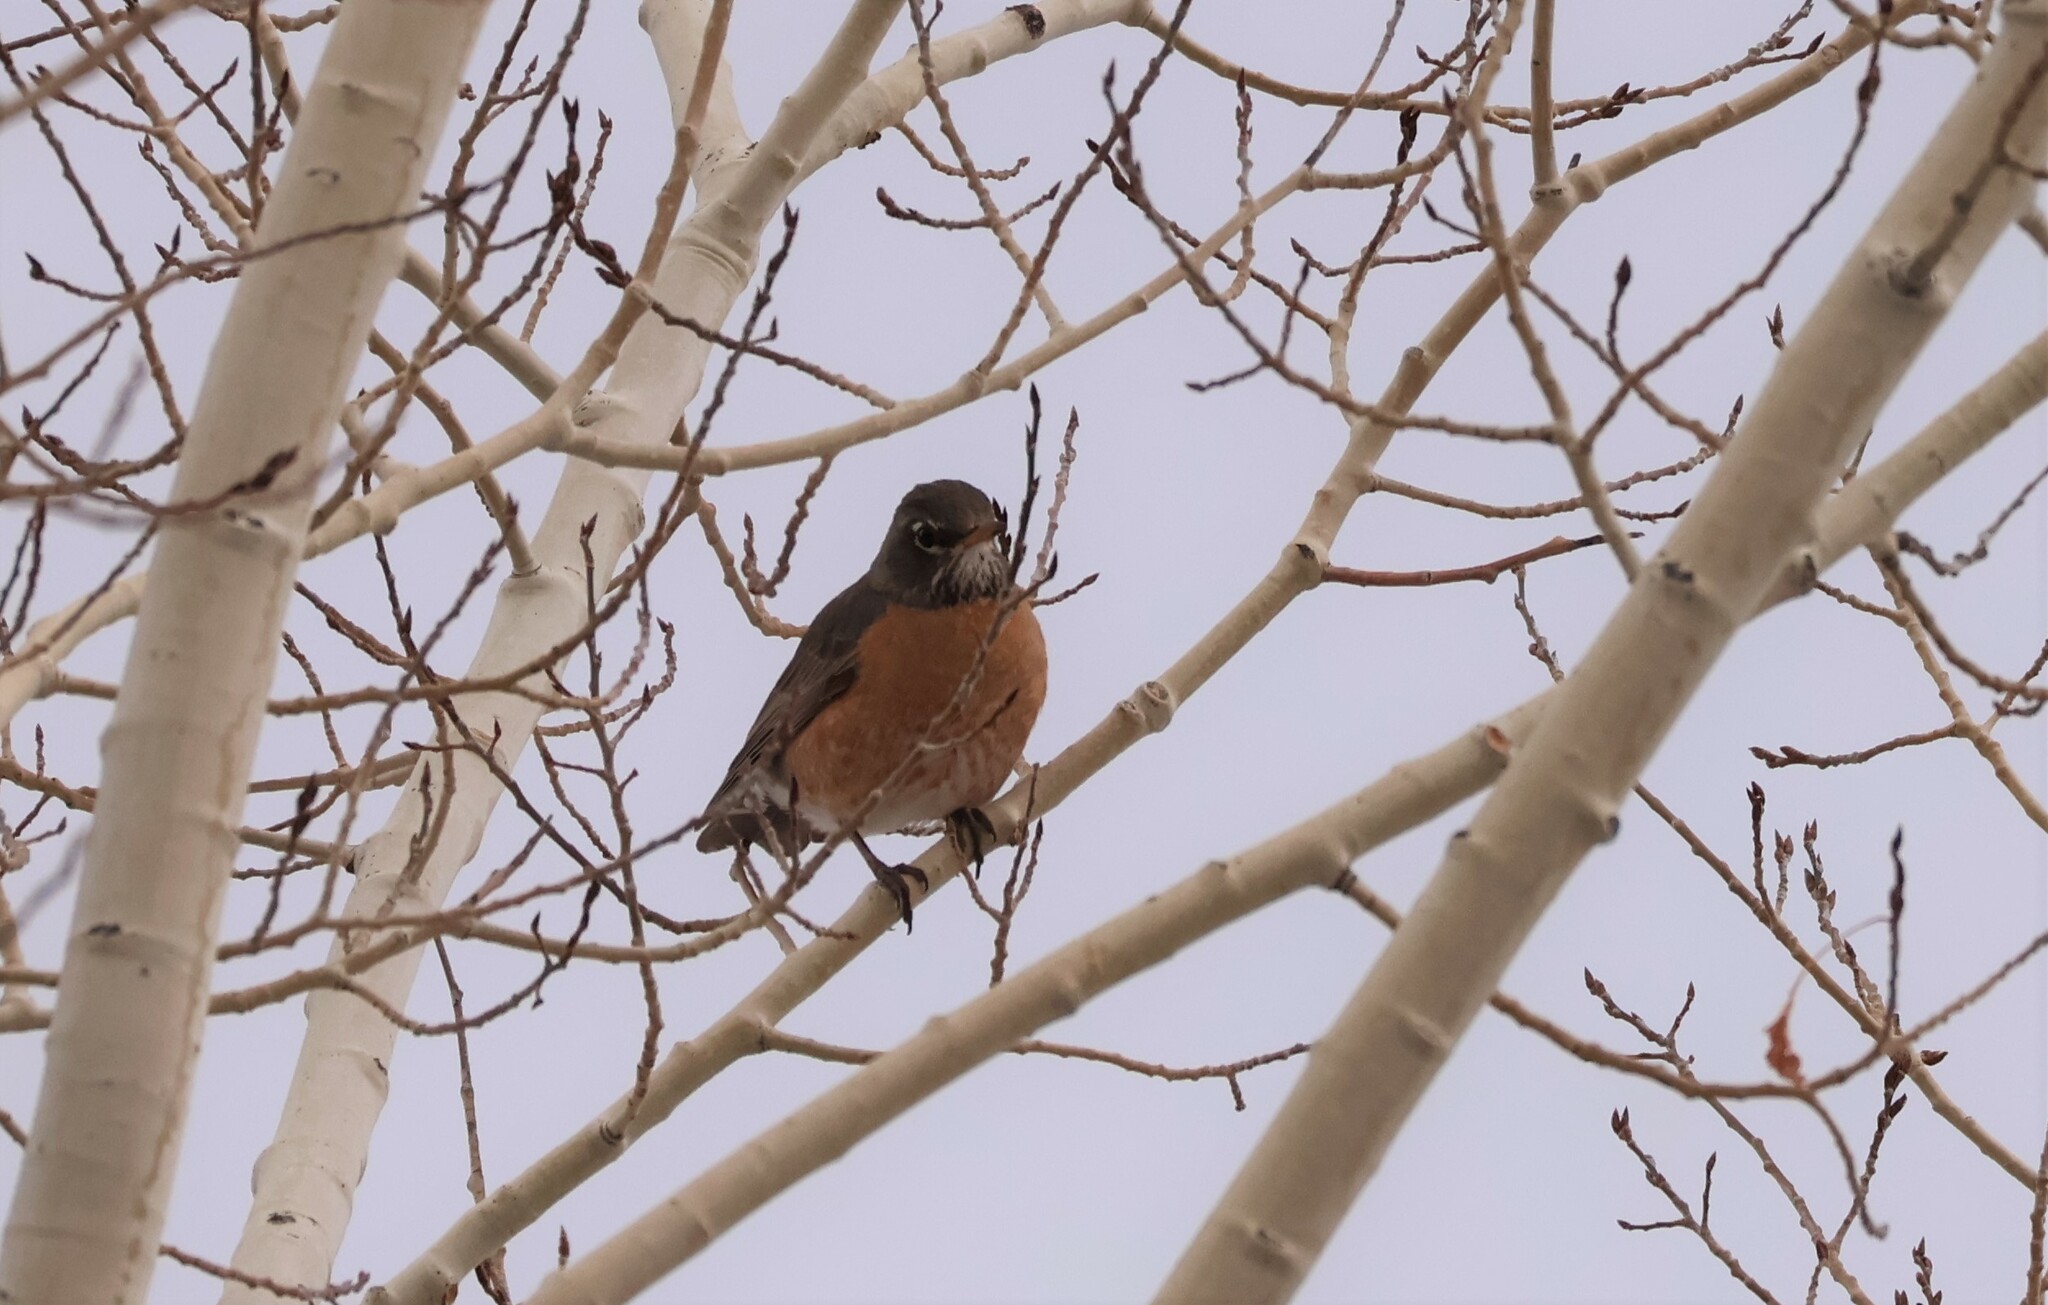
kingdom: Animalia
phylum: Chordata
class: Aves
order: Passeriformes
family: Turdidae
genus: Turdus
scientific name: Turdus migratorius
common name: American robin
